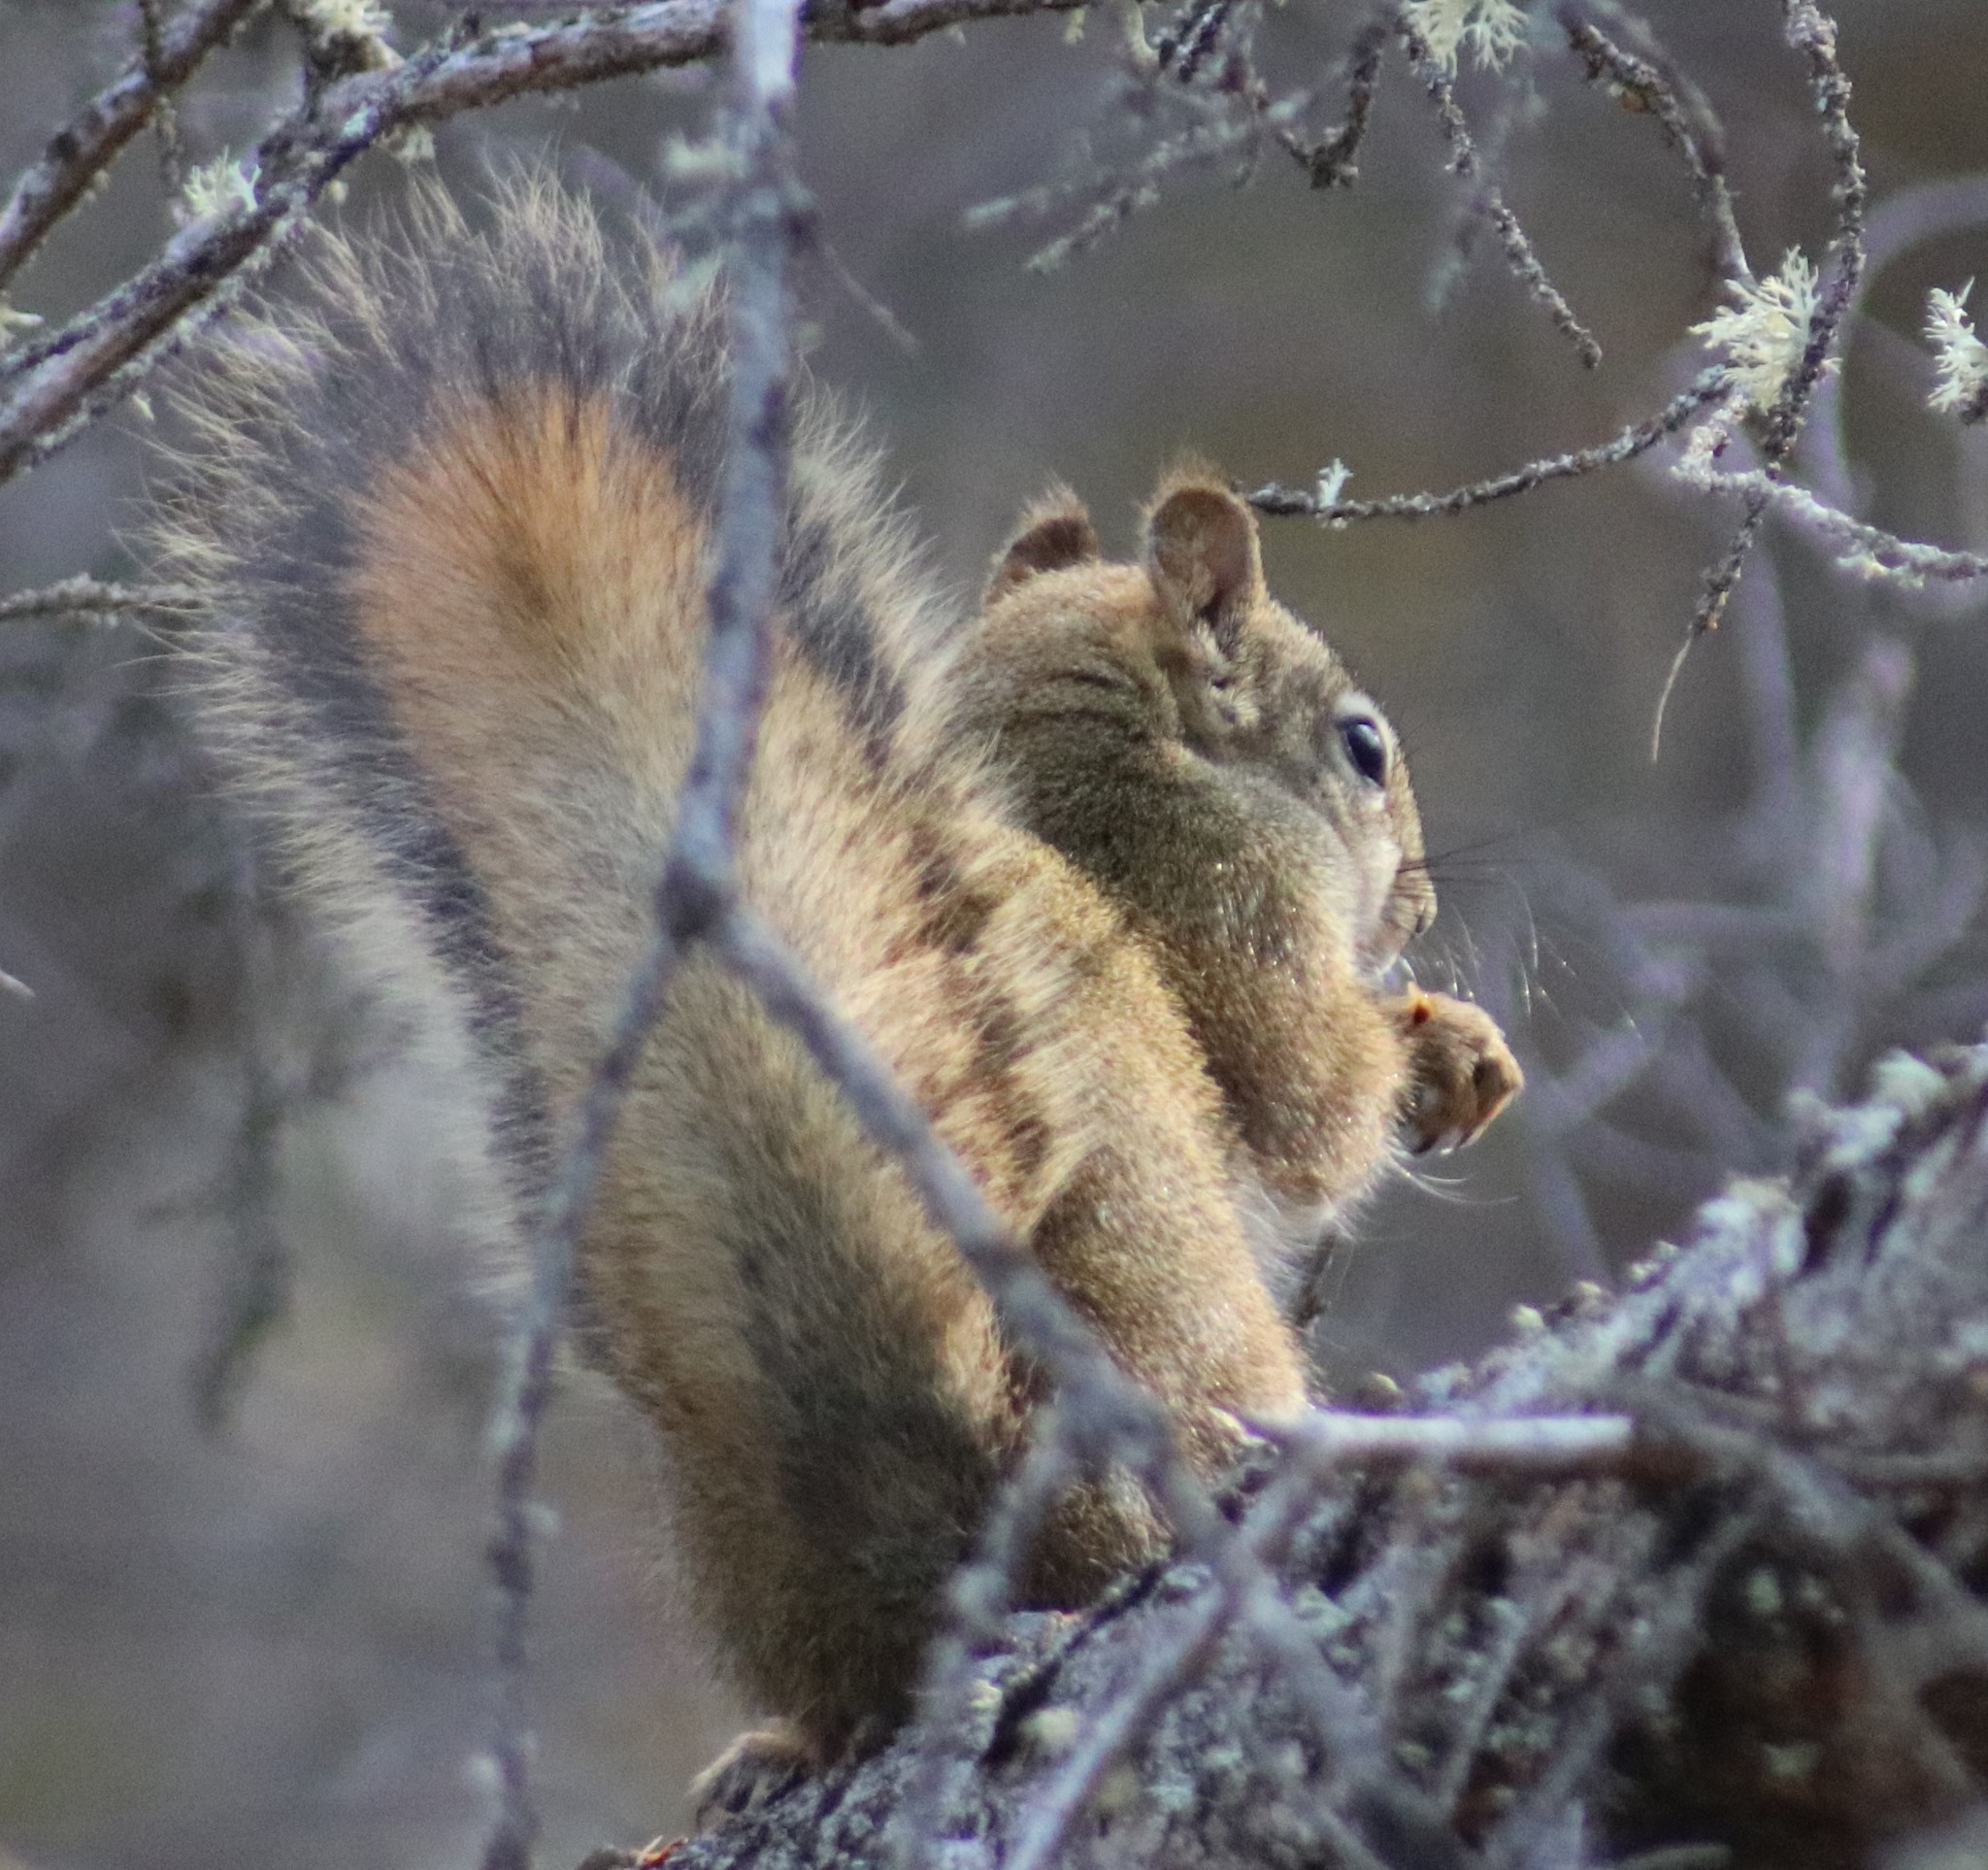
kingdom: Animalia
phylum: Chordata
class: Mammalia
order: Rodentia
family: Sciuridae
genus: Tamiasciurus
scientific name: Tamiasciurus hudsonicus
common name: Red squirrel
